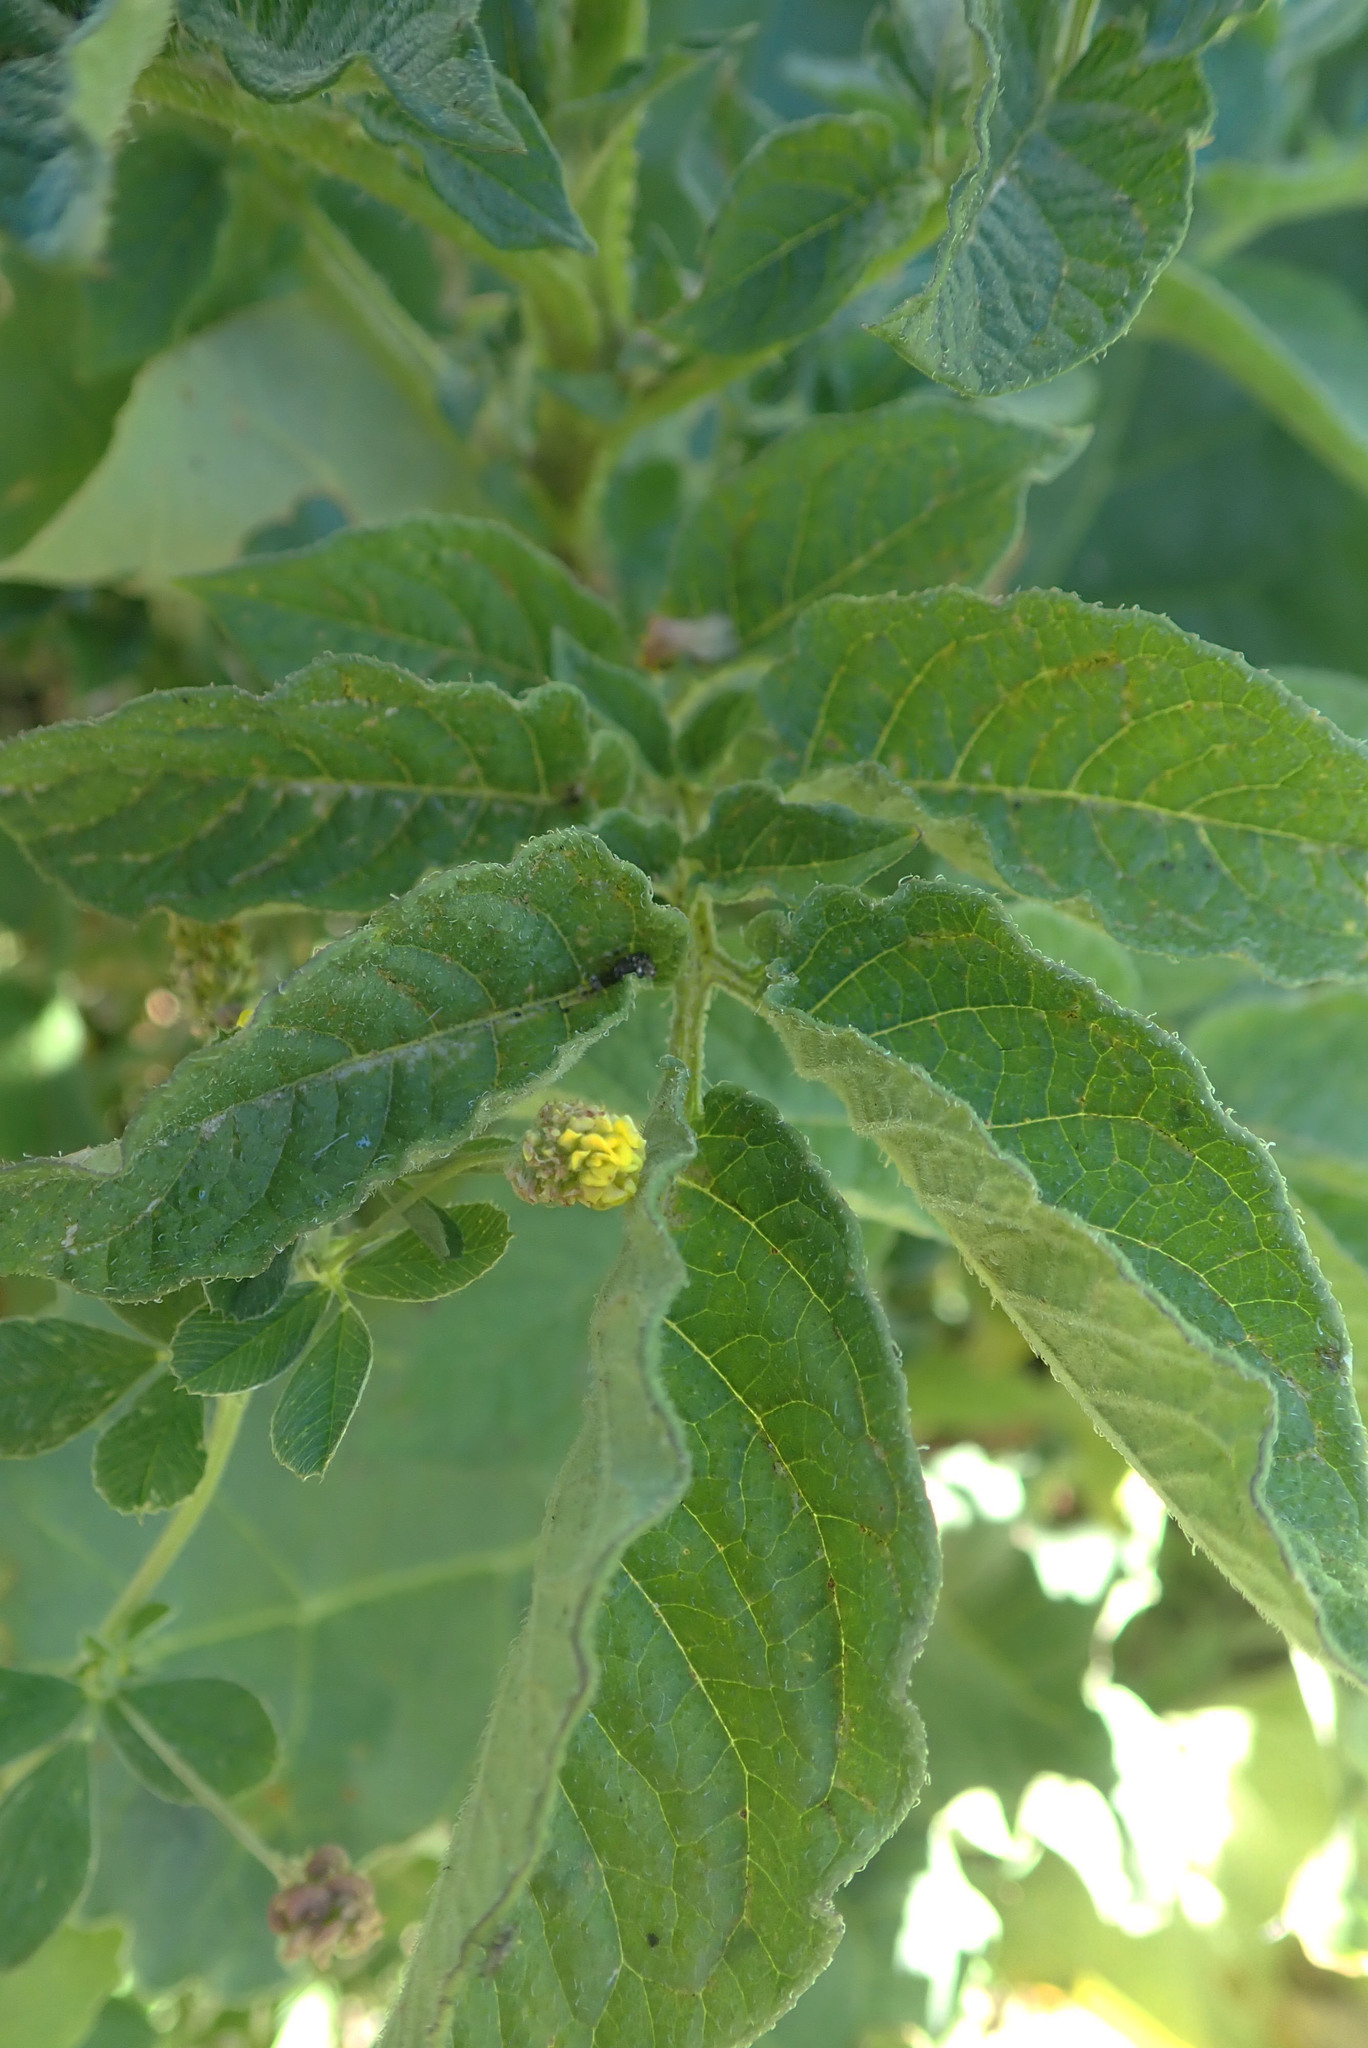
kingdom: Plantae
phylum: Tracheophyta
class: Magnoliopsida
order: Solanales
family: Solanaceae
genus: Solanum
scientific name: Solanum tuberosum
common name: Potato
